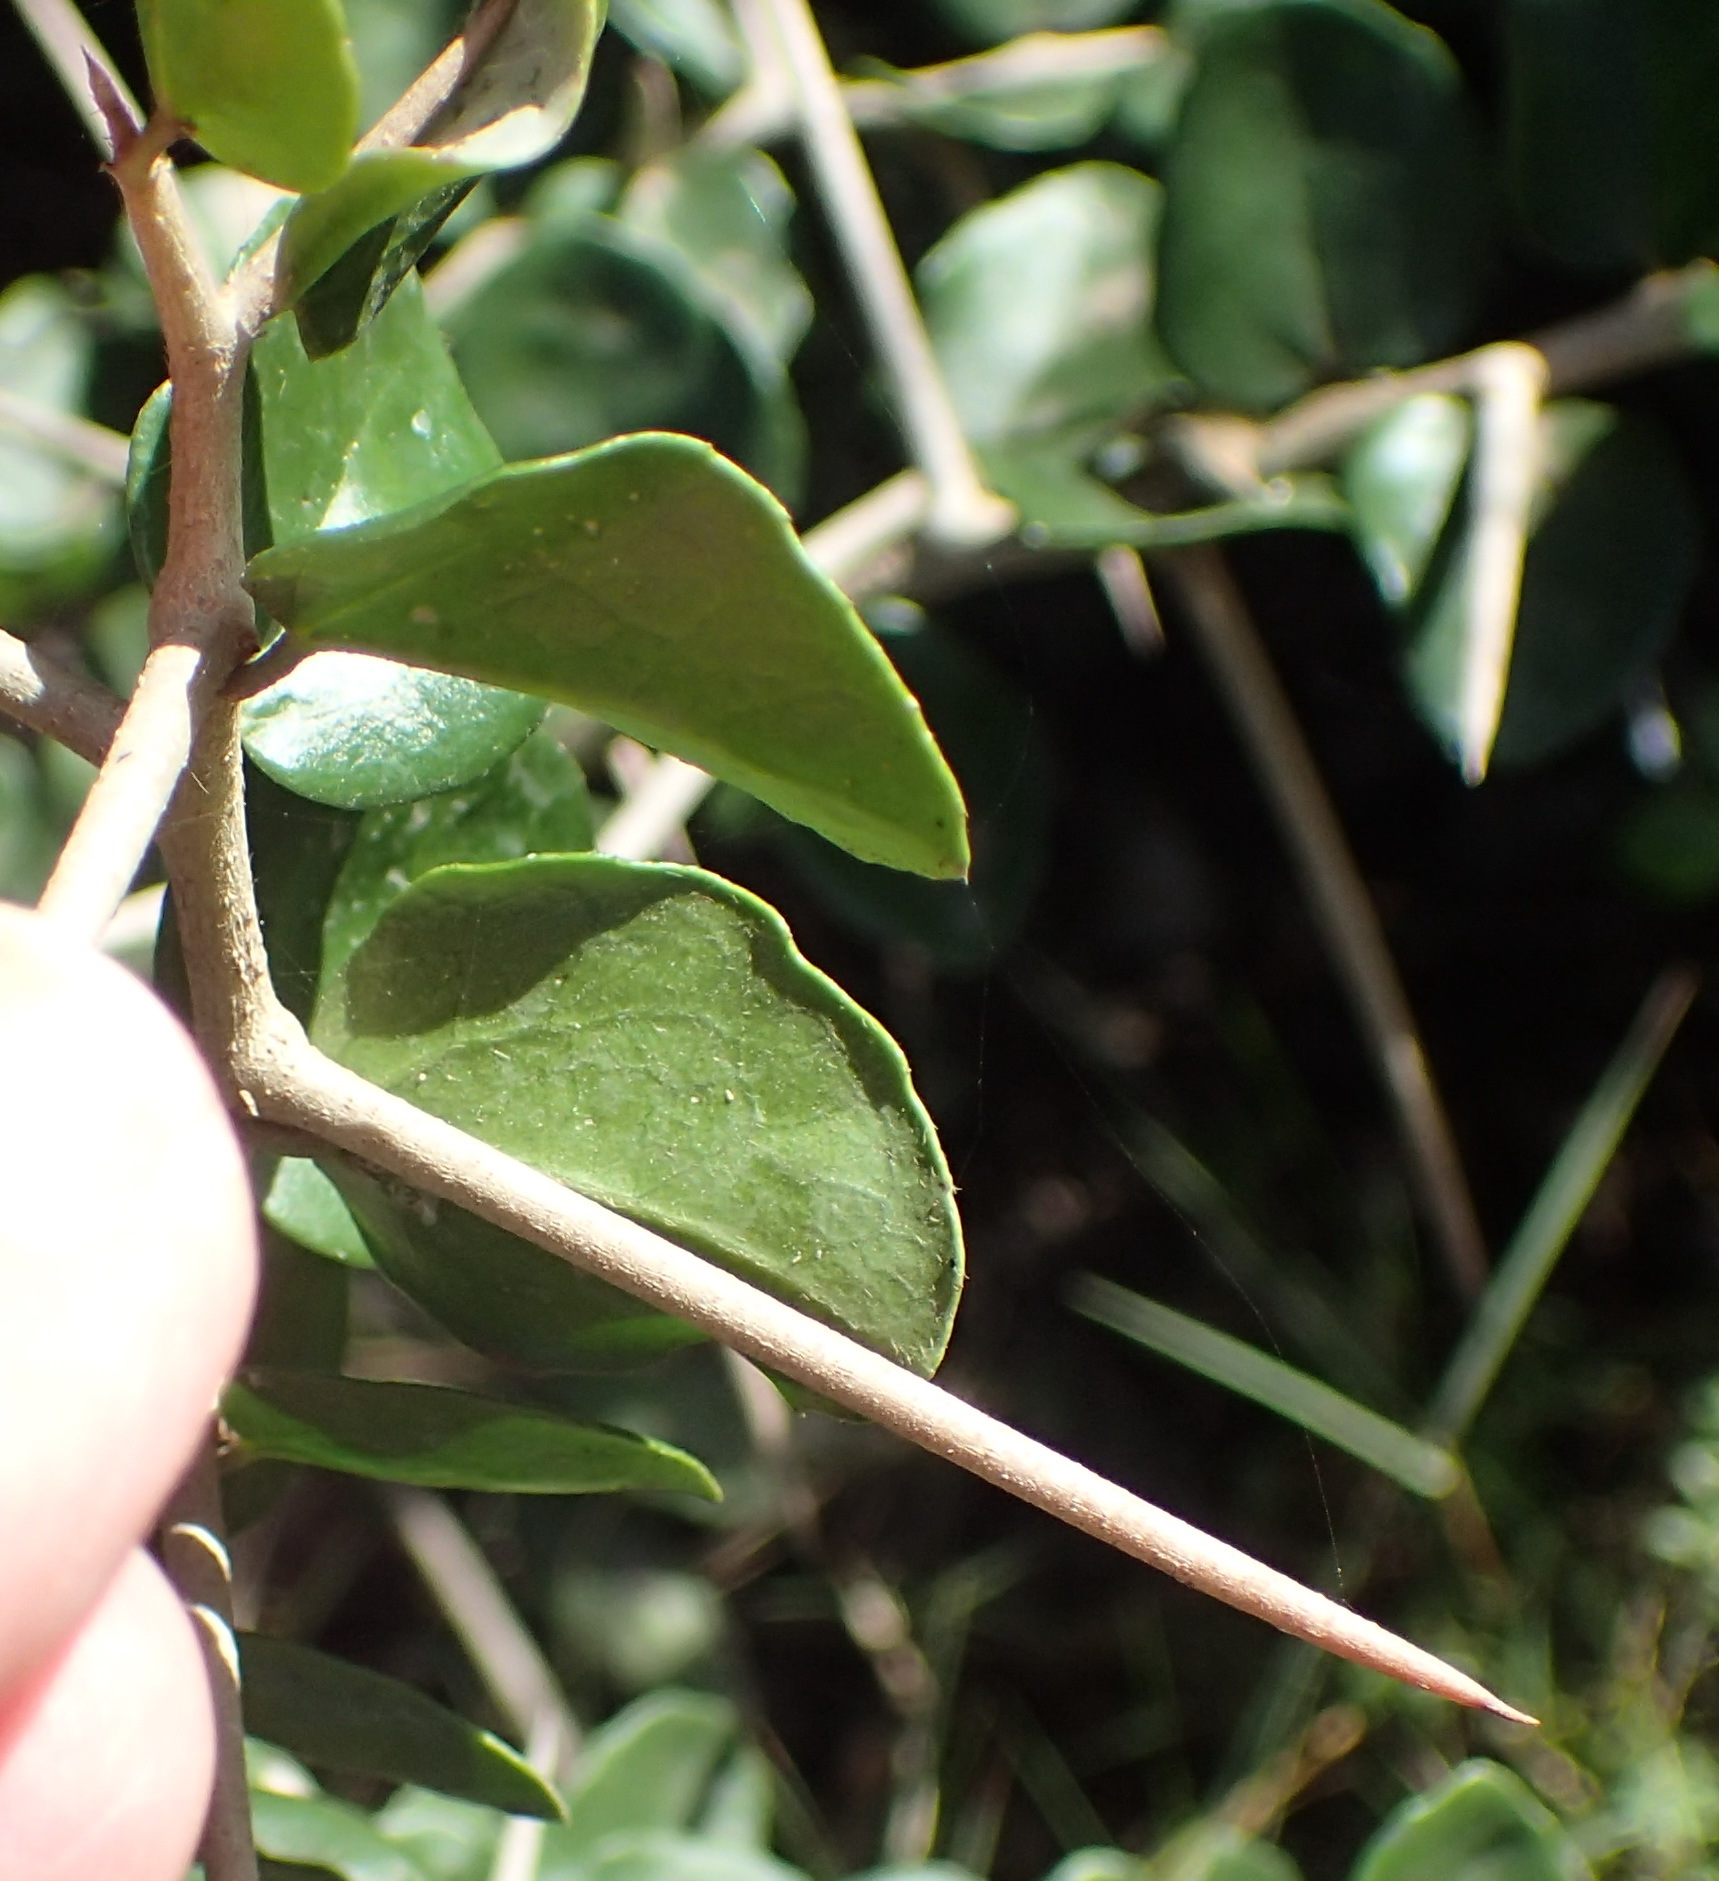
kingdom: Plantae
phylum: Tracheophyta
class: Magnoliopsida
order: Malpighiales
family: Salicaceae
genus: Dovyalis
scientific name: Dovyalis rhamnoides
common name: Sourberry
